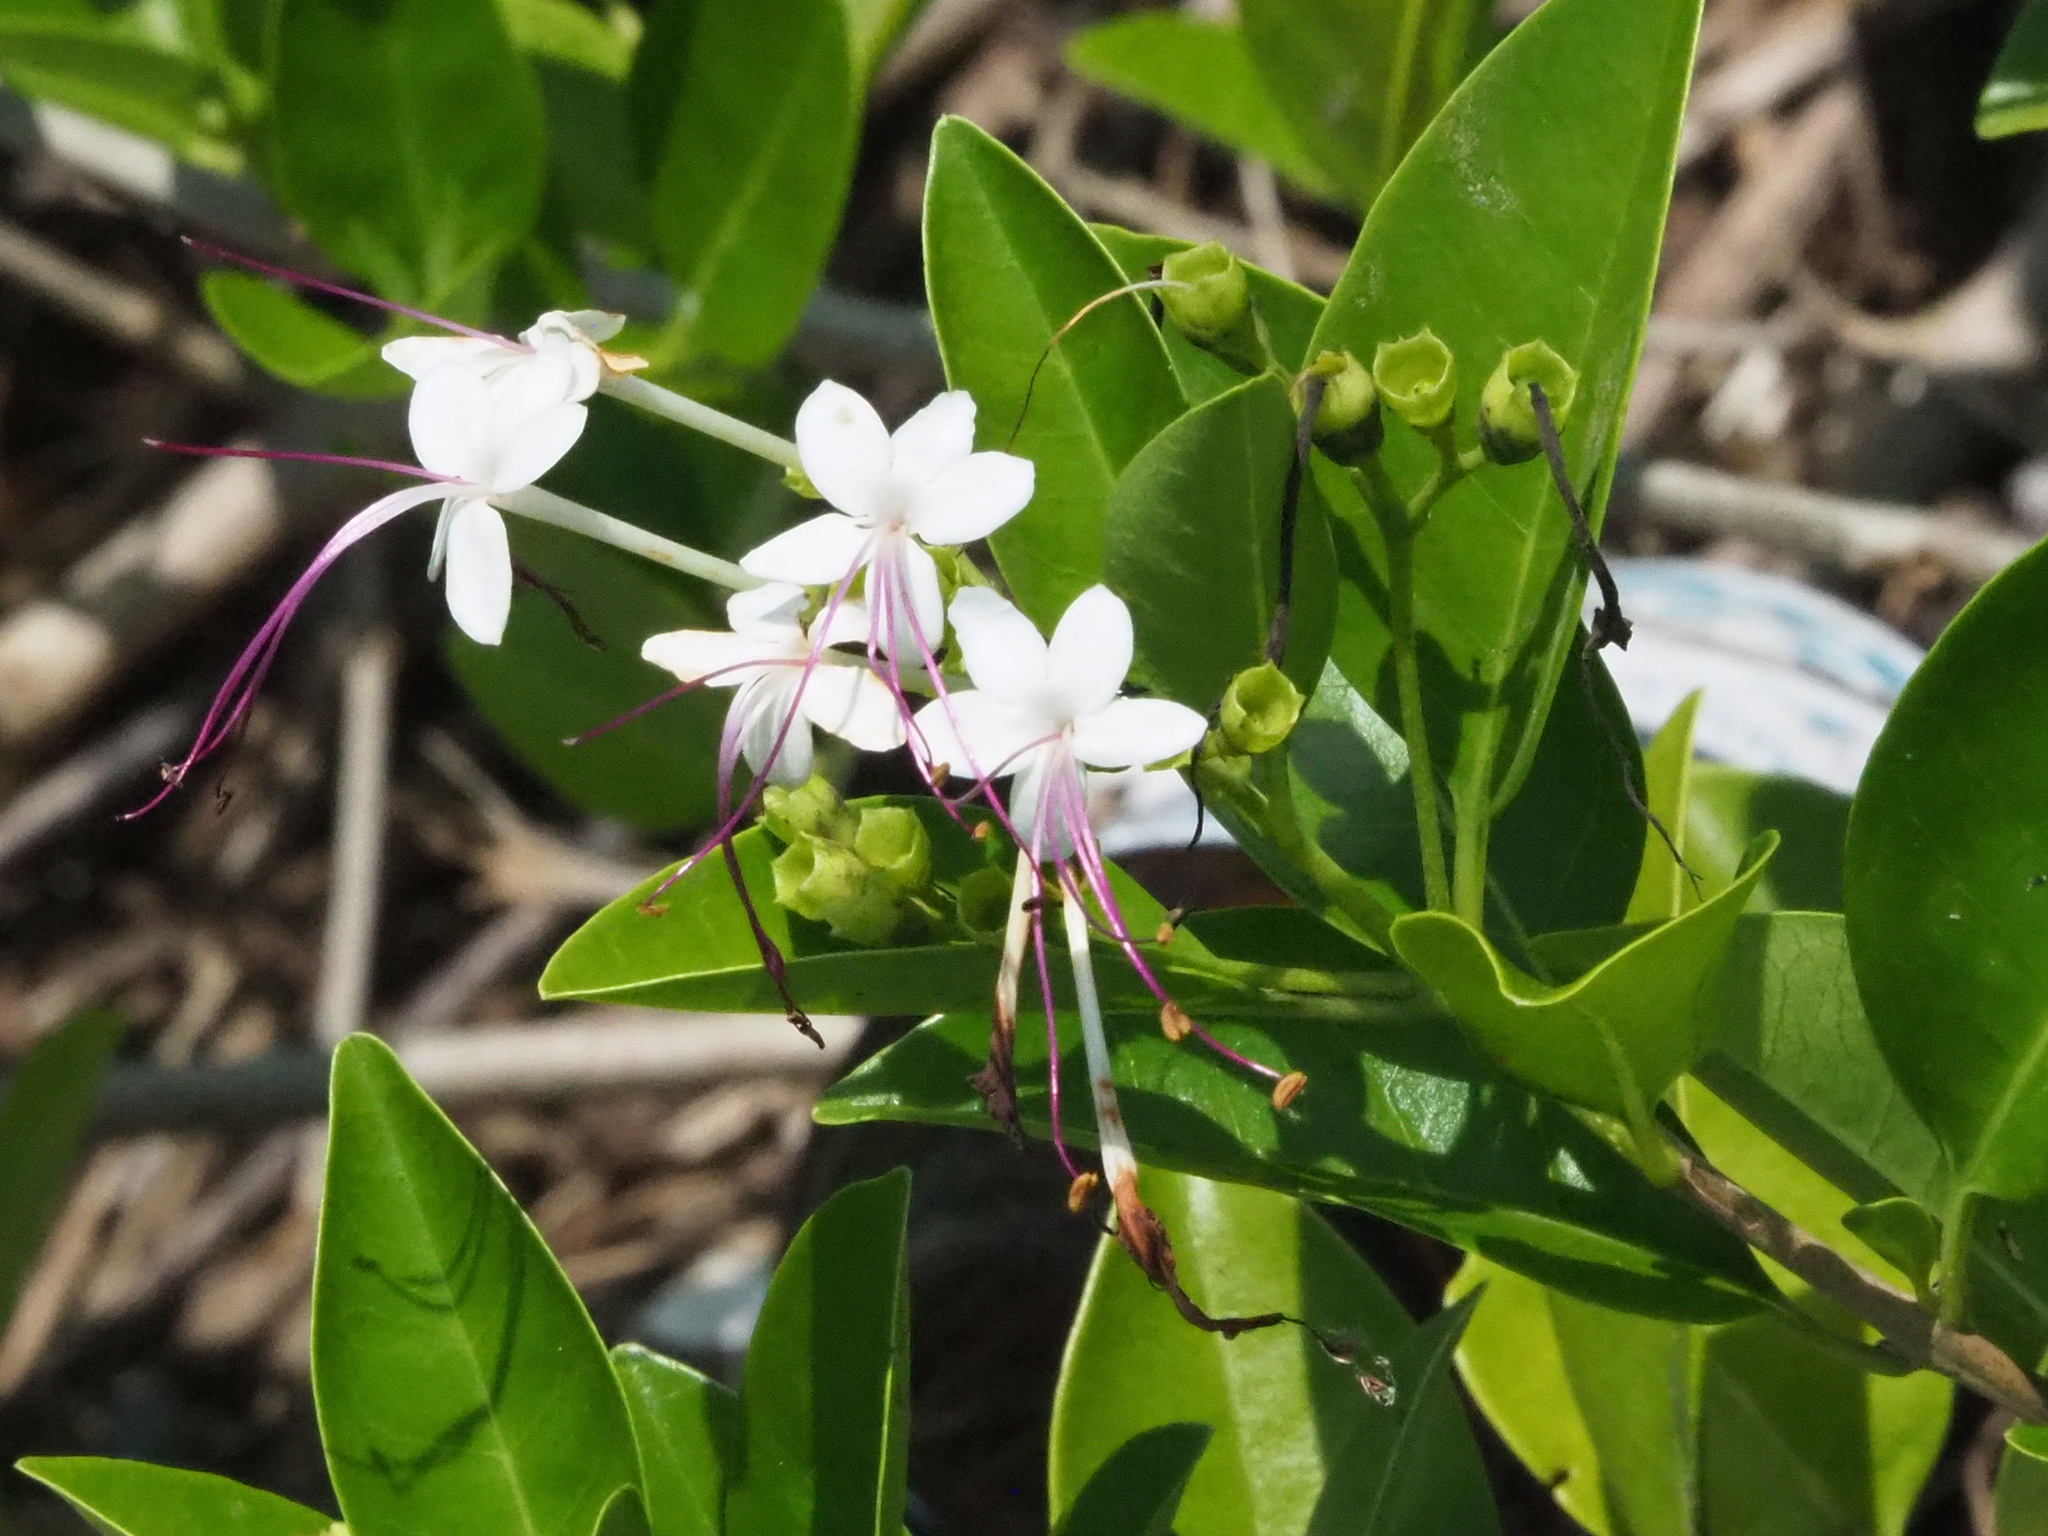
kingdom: Plantae
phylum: Tracheophyta
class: Magnoliopsida
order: Lamiales
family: Lamiaceae
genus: Volkameria
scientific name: Volkameria inermis
